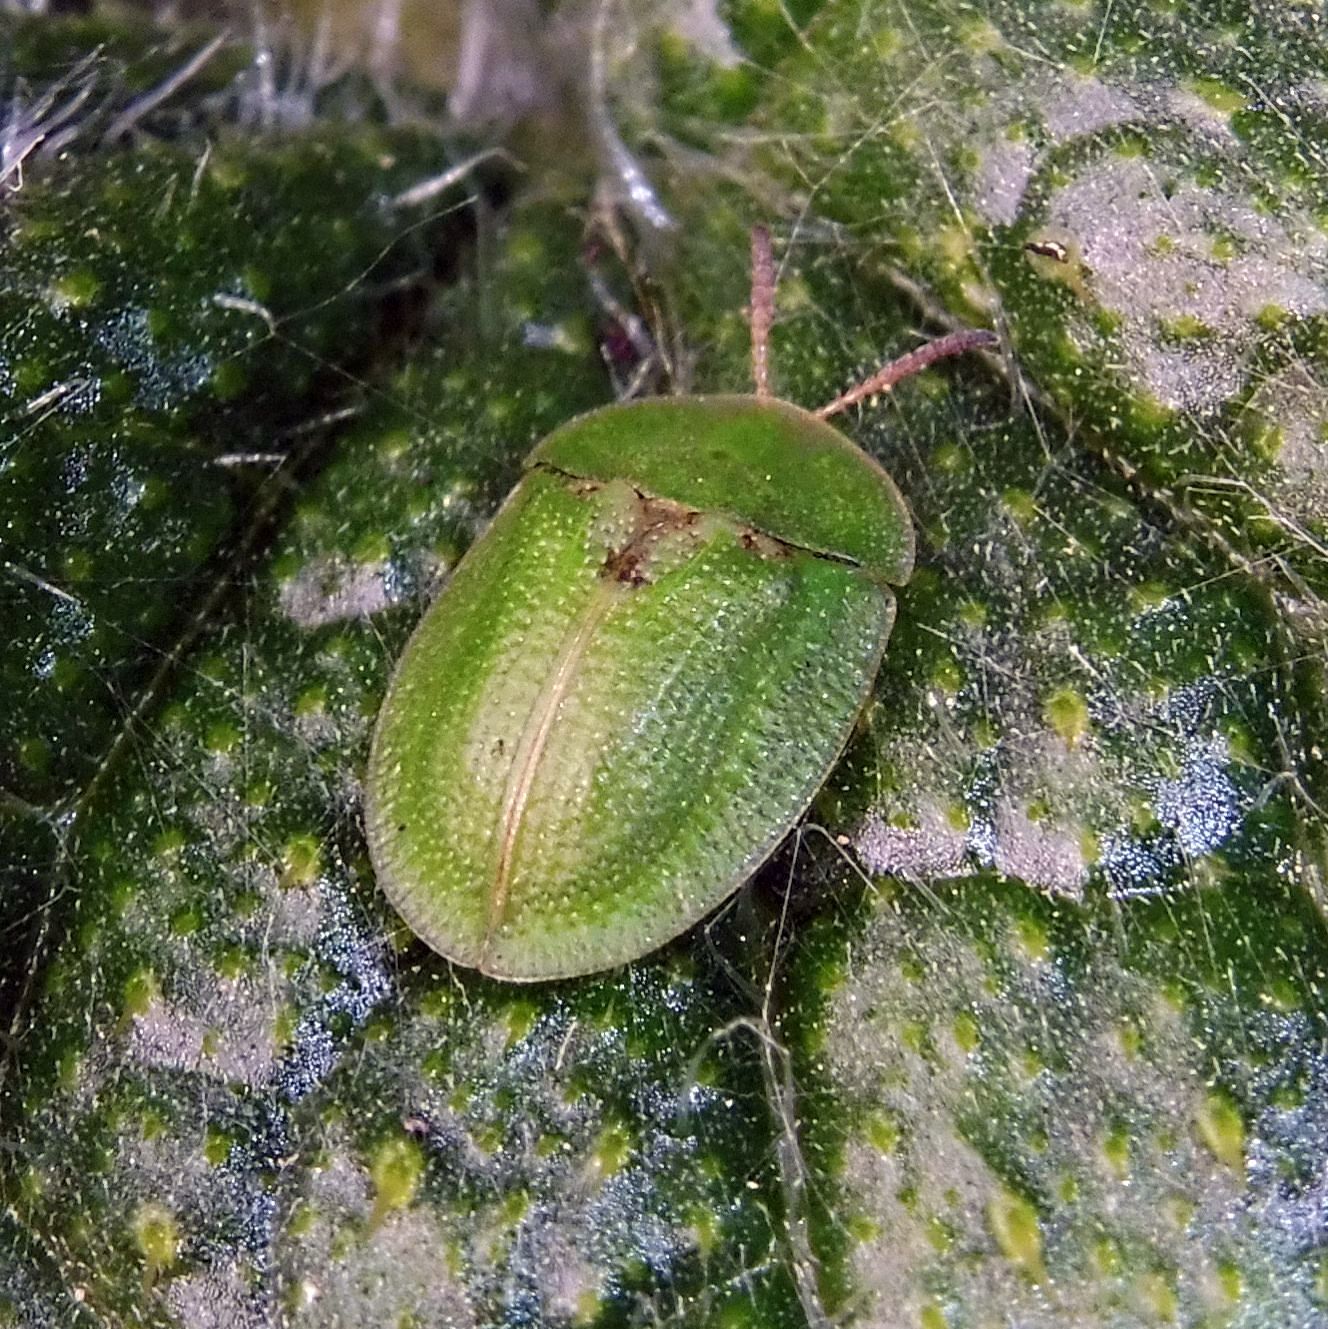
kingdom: Animalia
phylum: Arthropoda
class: Insecta
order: Coleoptera
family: Chrysomelidae
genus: Cassida
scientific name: Cassida rubiginosa
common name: Thistle tortoise beetle
